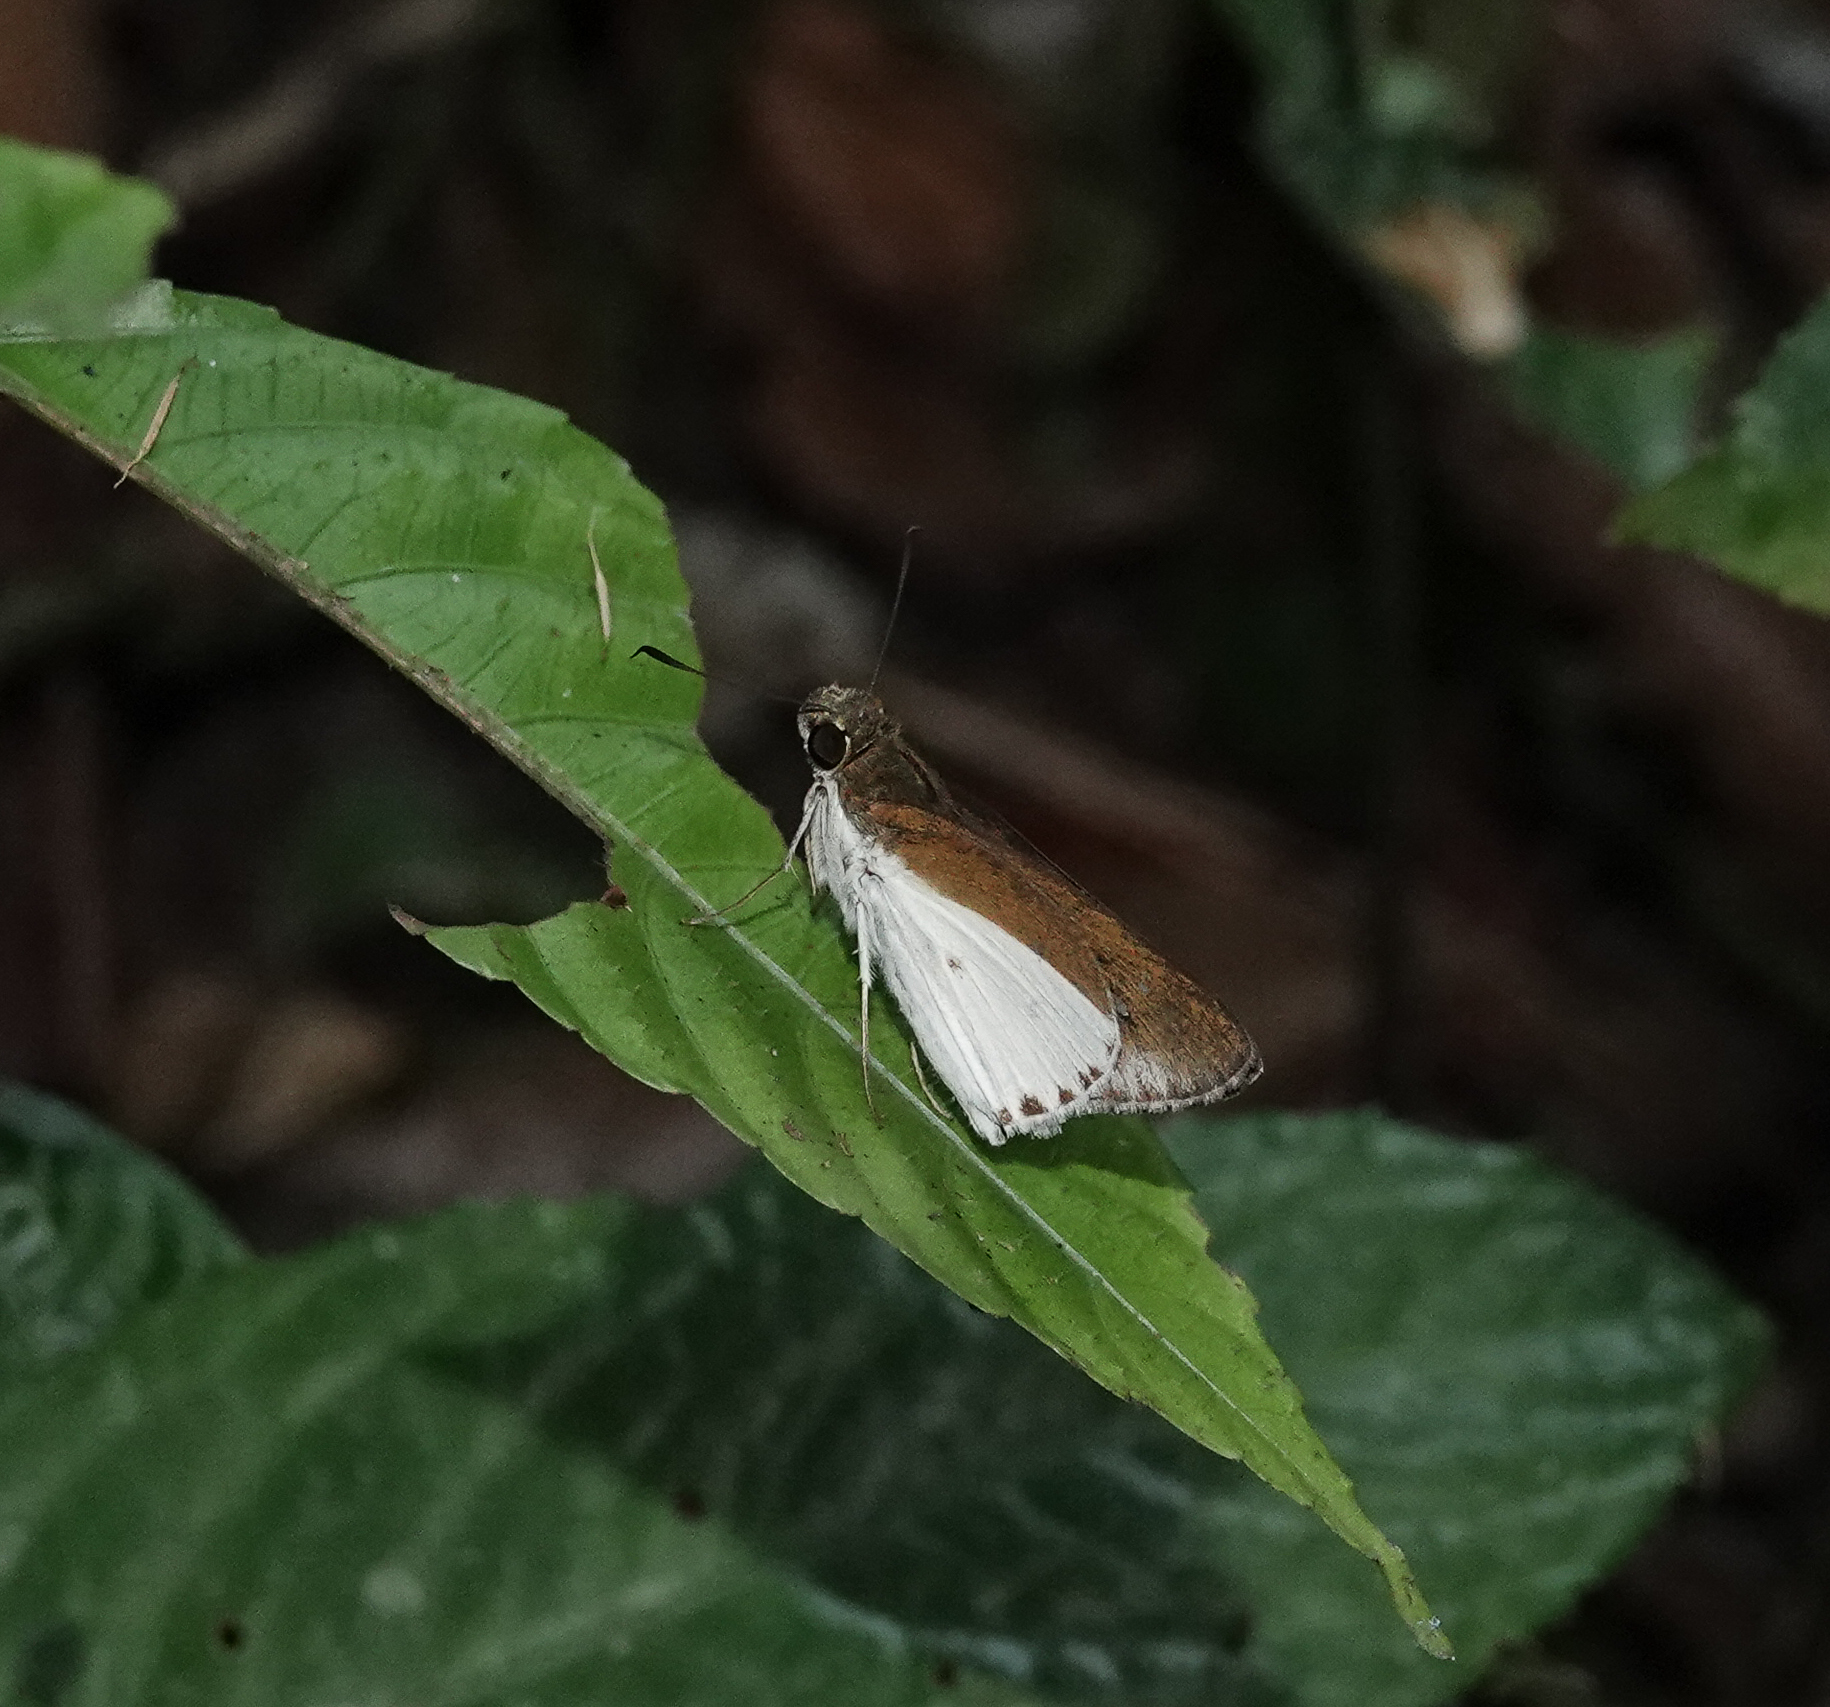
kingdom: Animalia
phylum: Arthropoda
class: Insecta
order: Lepidoptera
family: Hesperiidae
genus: Iton
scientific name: Iton semamora
